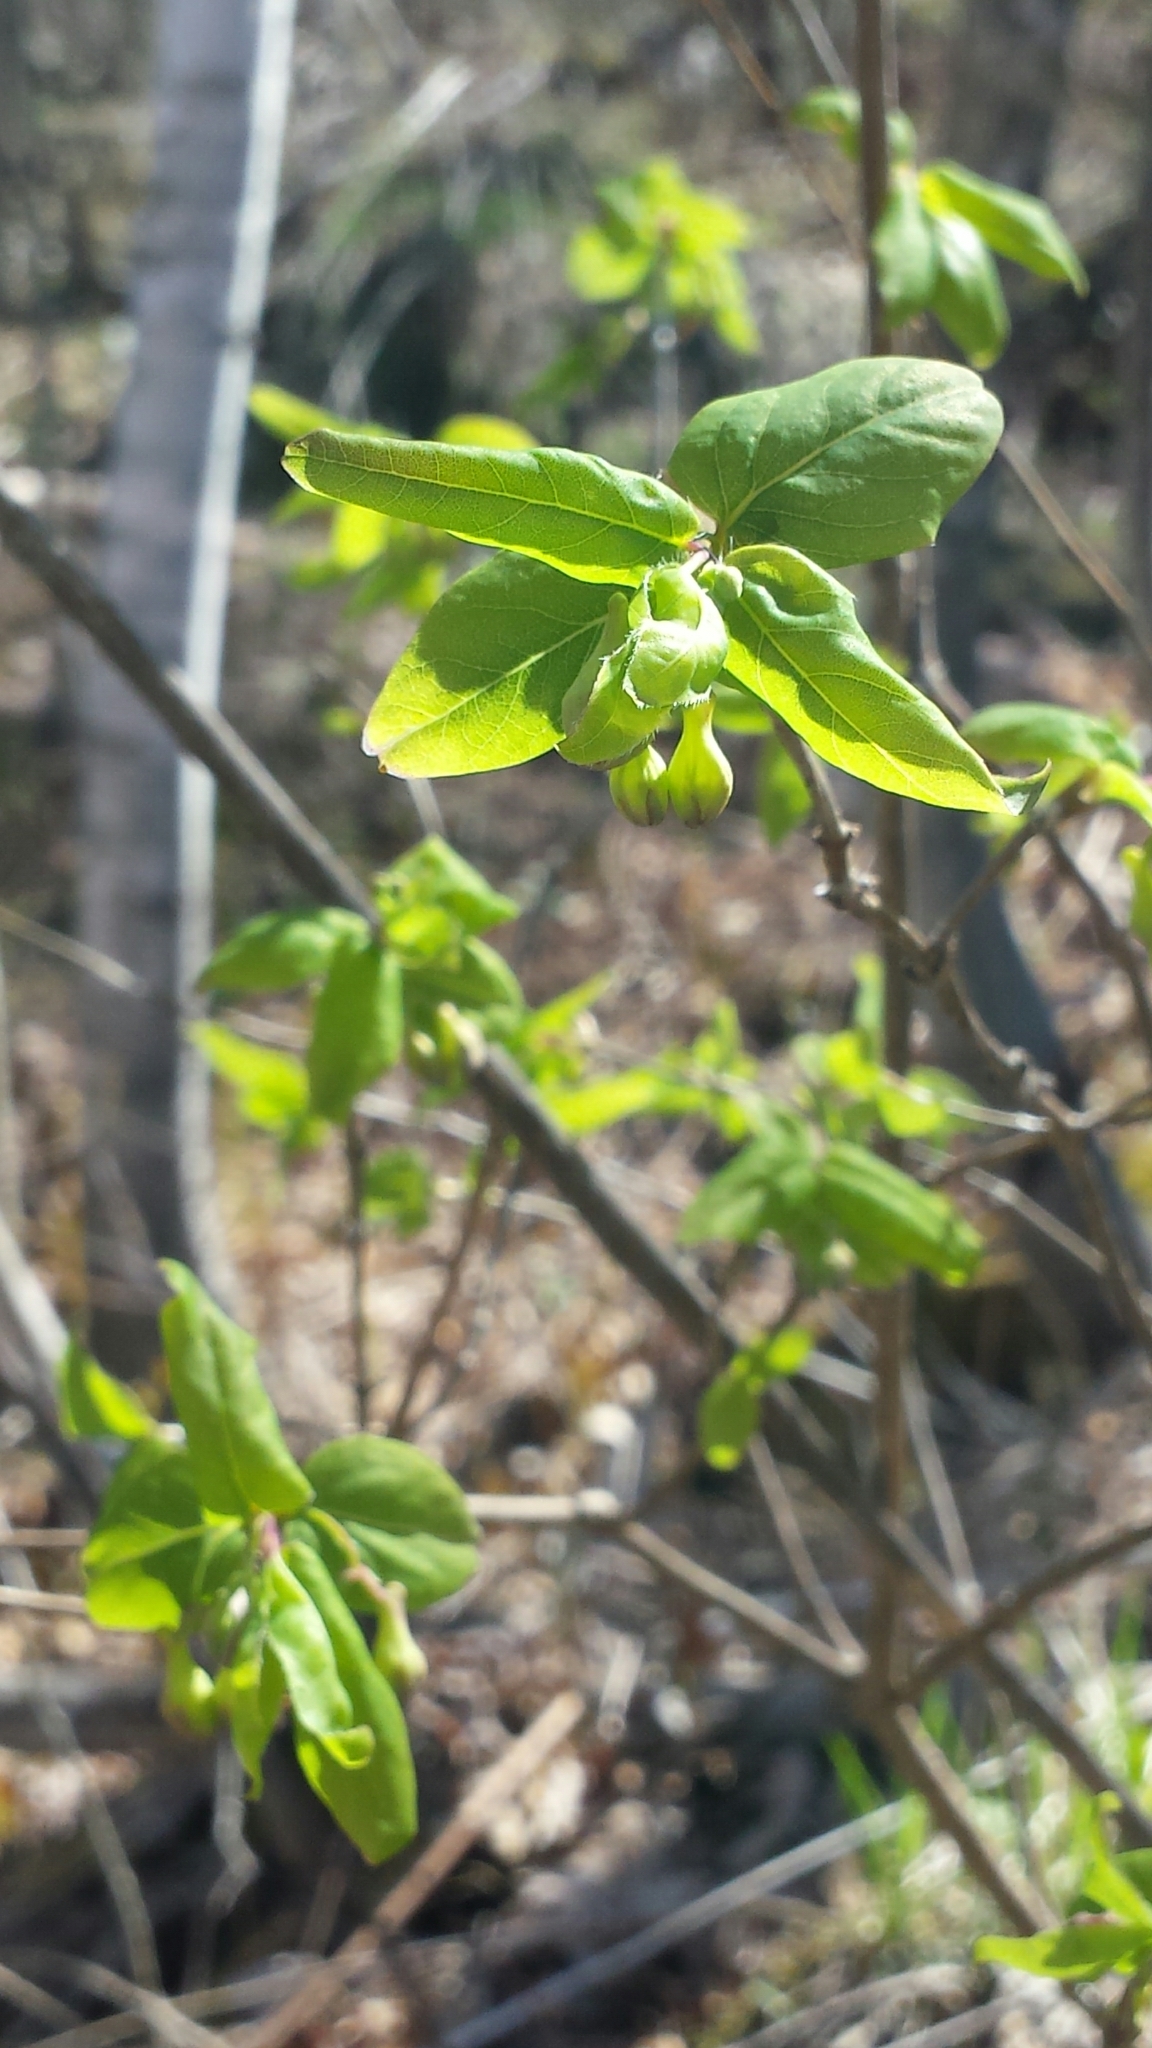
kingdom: Plantae
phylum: Tracheophyta
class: Magnoliopsida
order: Dipsacales
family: Caprifoliaceae
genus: Lonicera
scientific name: Lonicera canadensis
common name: American fly-honeysuckle
